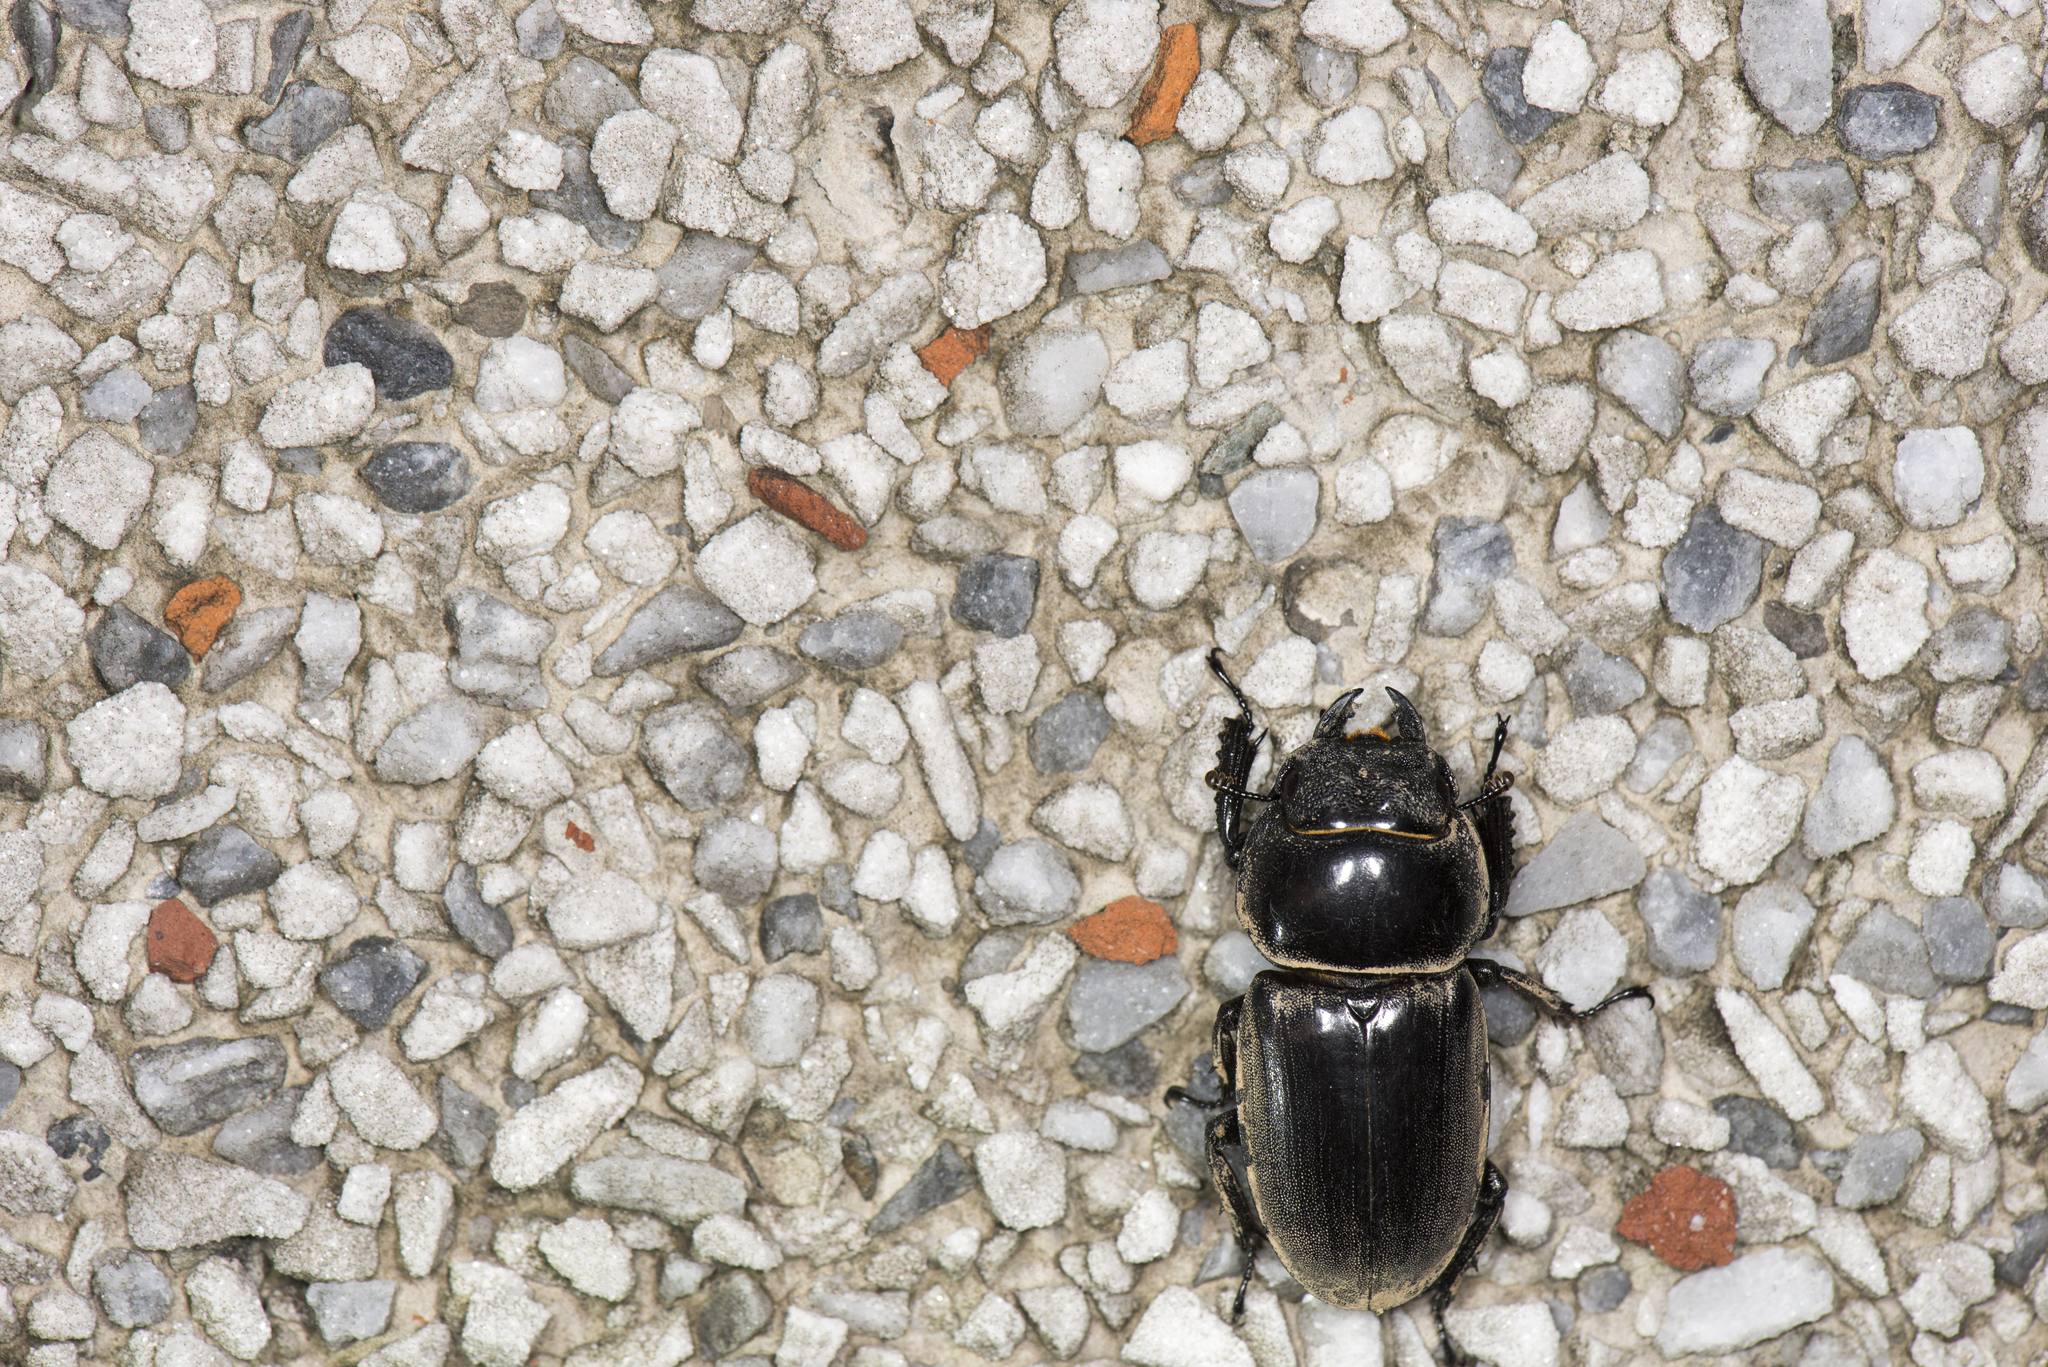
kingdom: Animalia
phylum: Arthropoda
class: Insecta
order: Coleoptera
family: Lucanidae
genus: Serrognathus
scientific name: Serrognathus titanus
